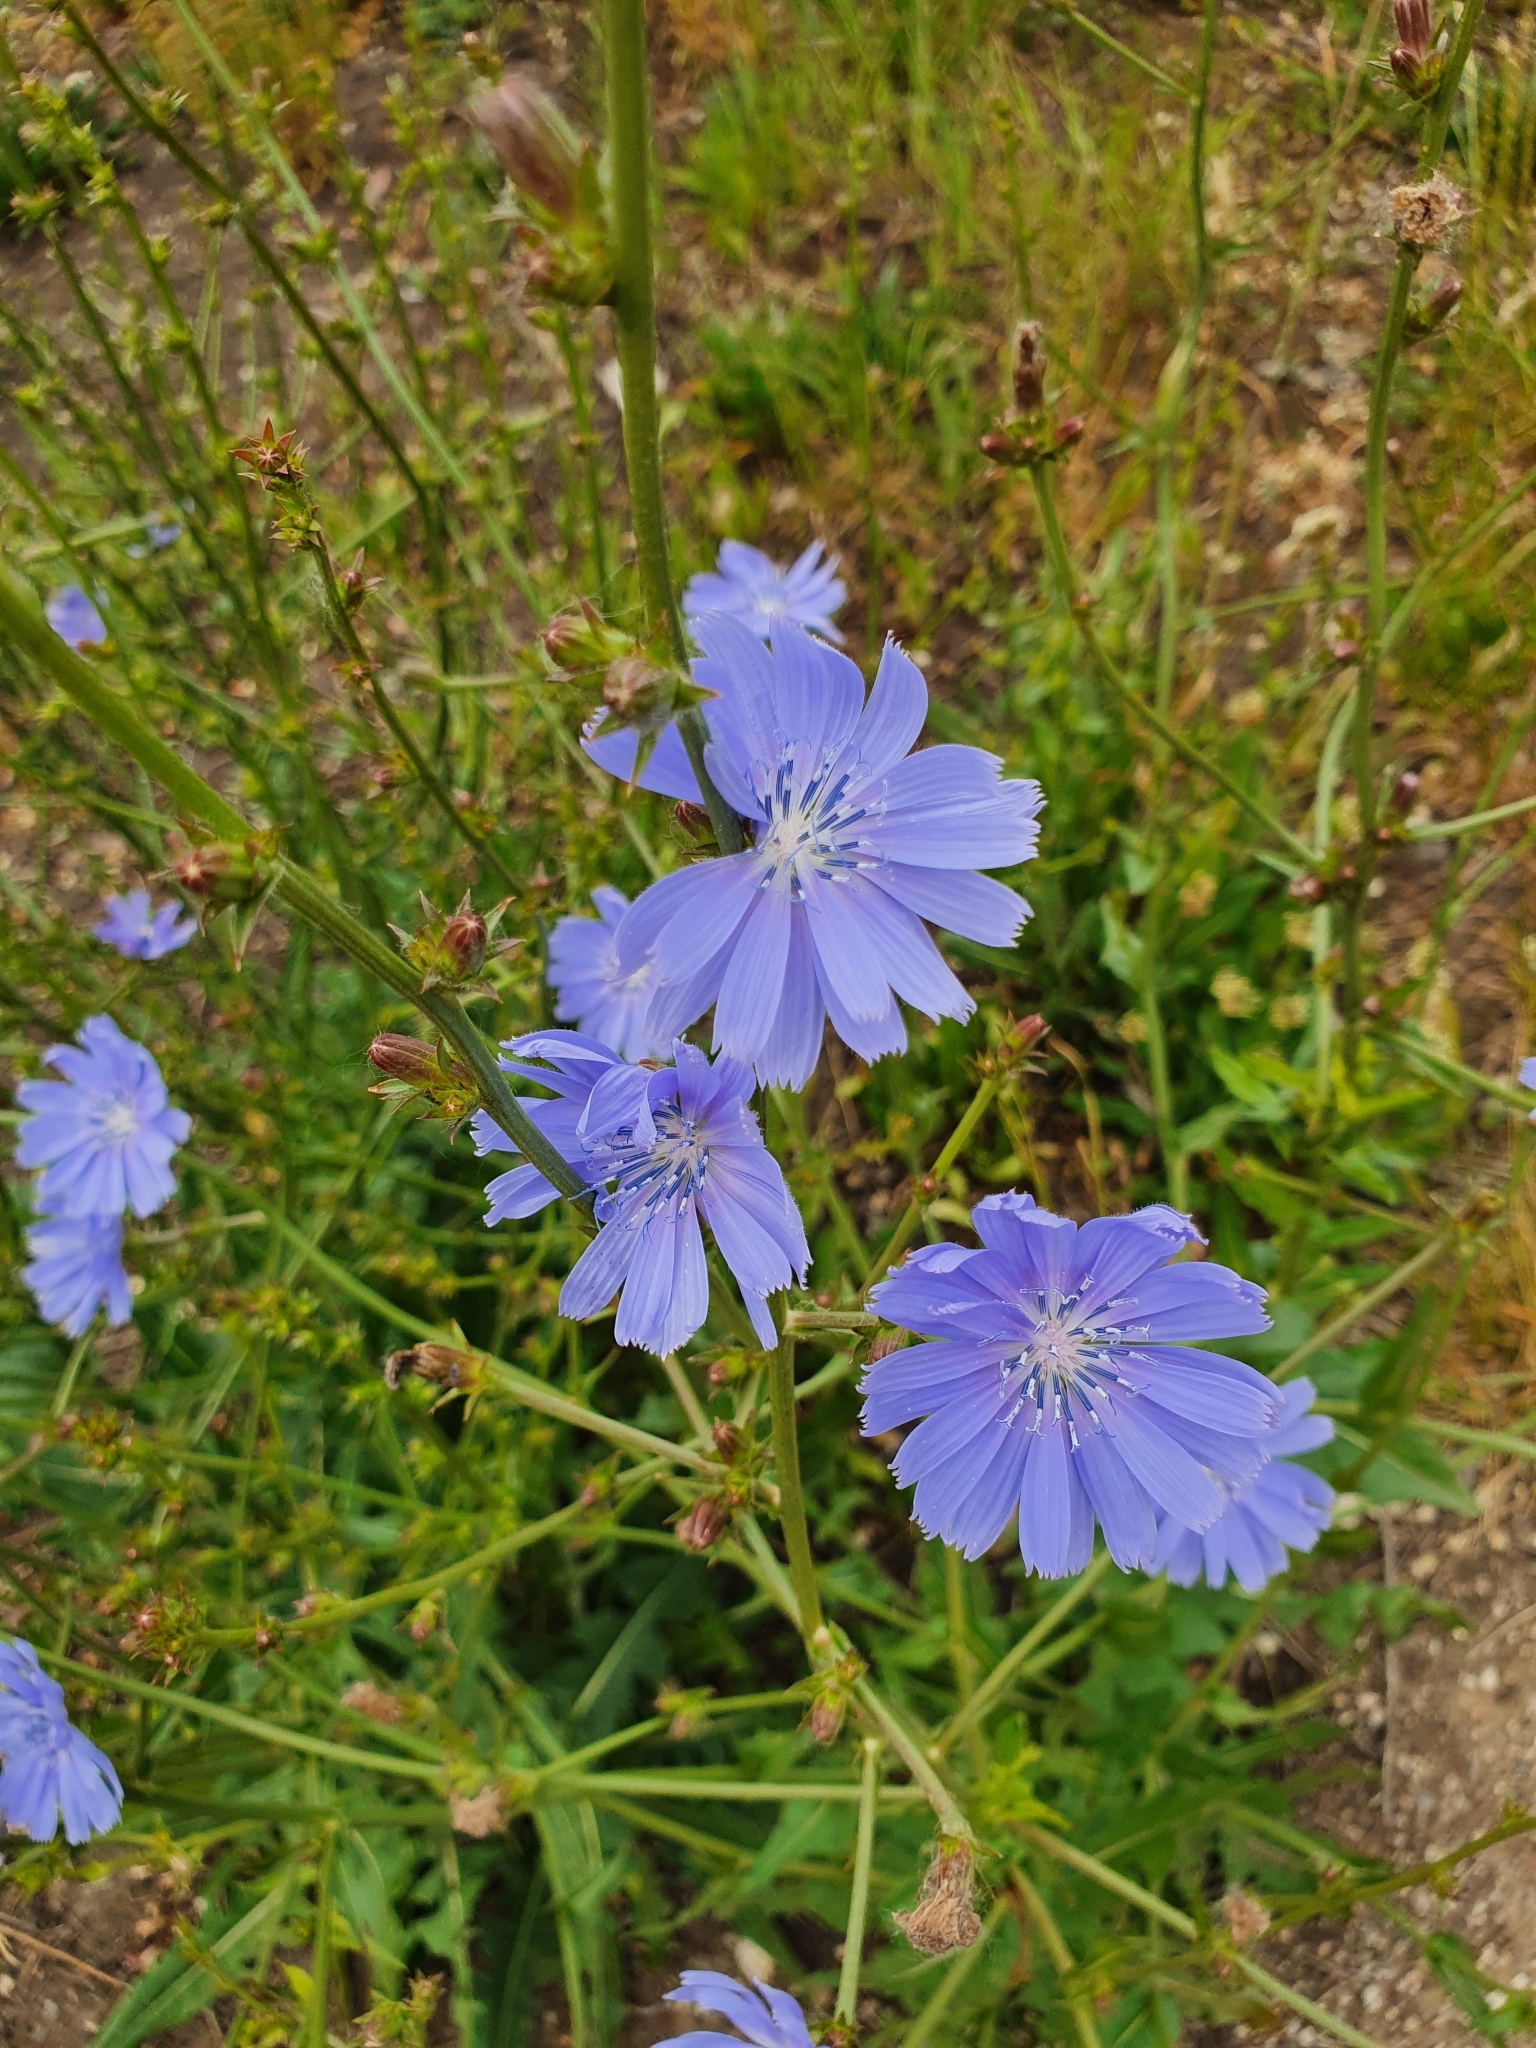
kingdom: Plantae
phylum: Tracheophyta
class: Magnoliopsida
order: Asterales
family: Asteraceae
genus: Cichorium
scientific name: Cichorium intybus
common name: Chicory
